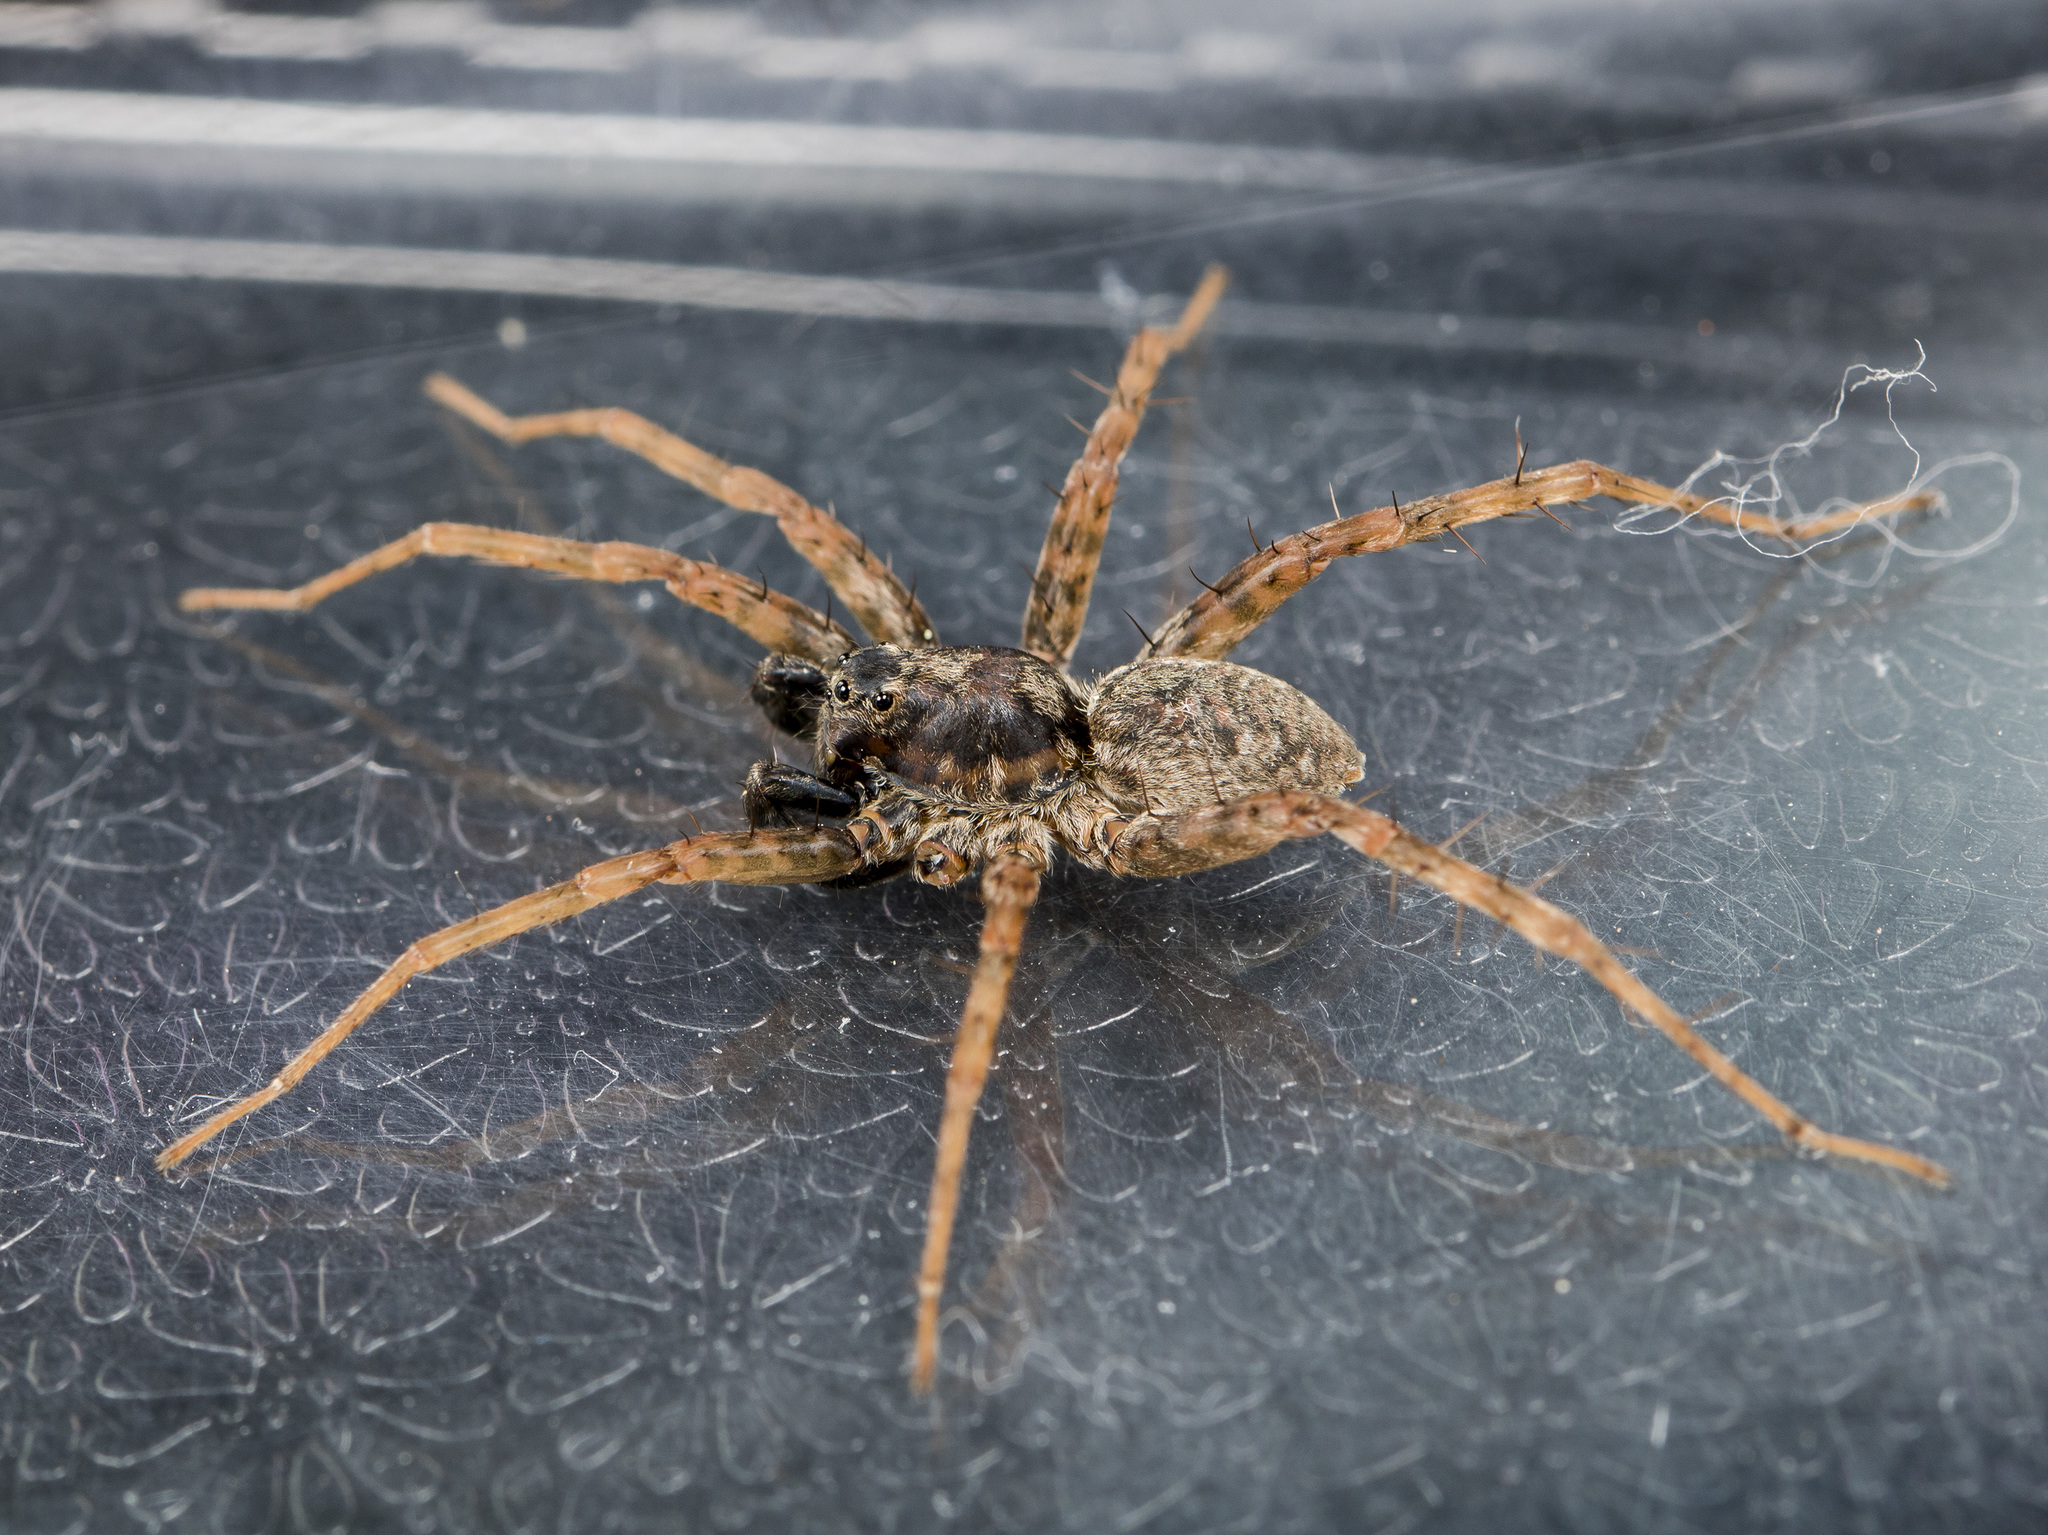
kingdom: Animalia
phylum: Arthropoda
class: Arachnida
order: Araneae
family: Lycosidae
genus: Pardosa
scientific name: Pardosa nebulosa
